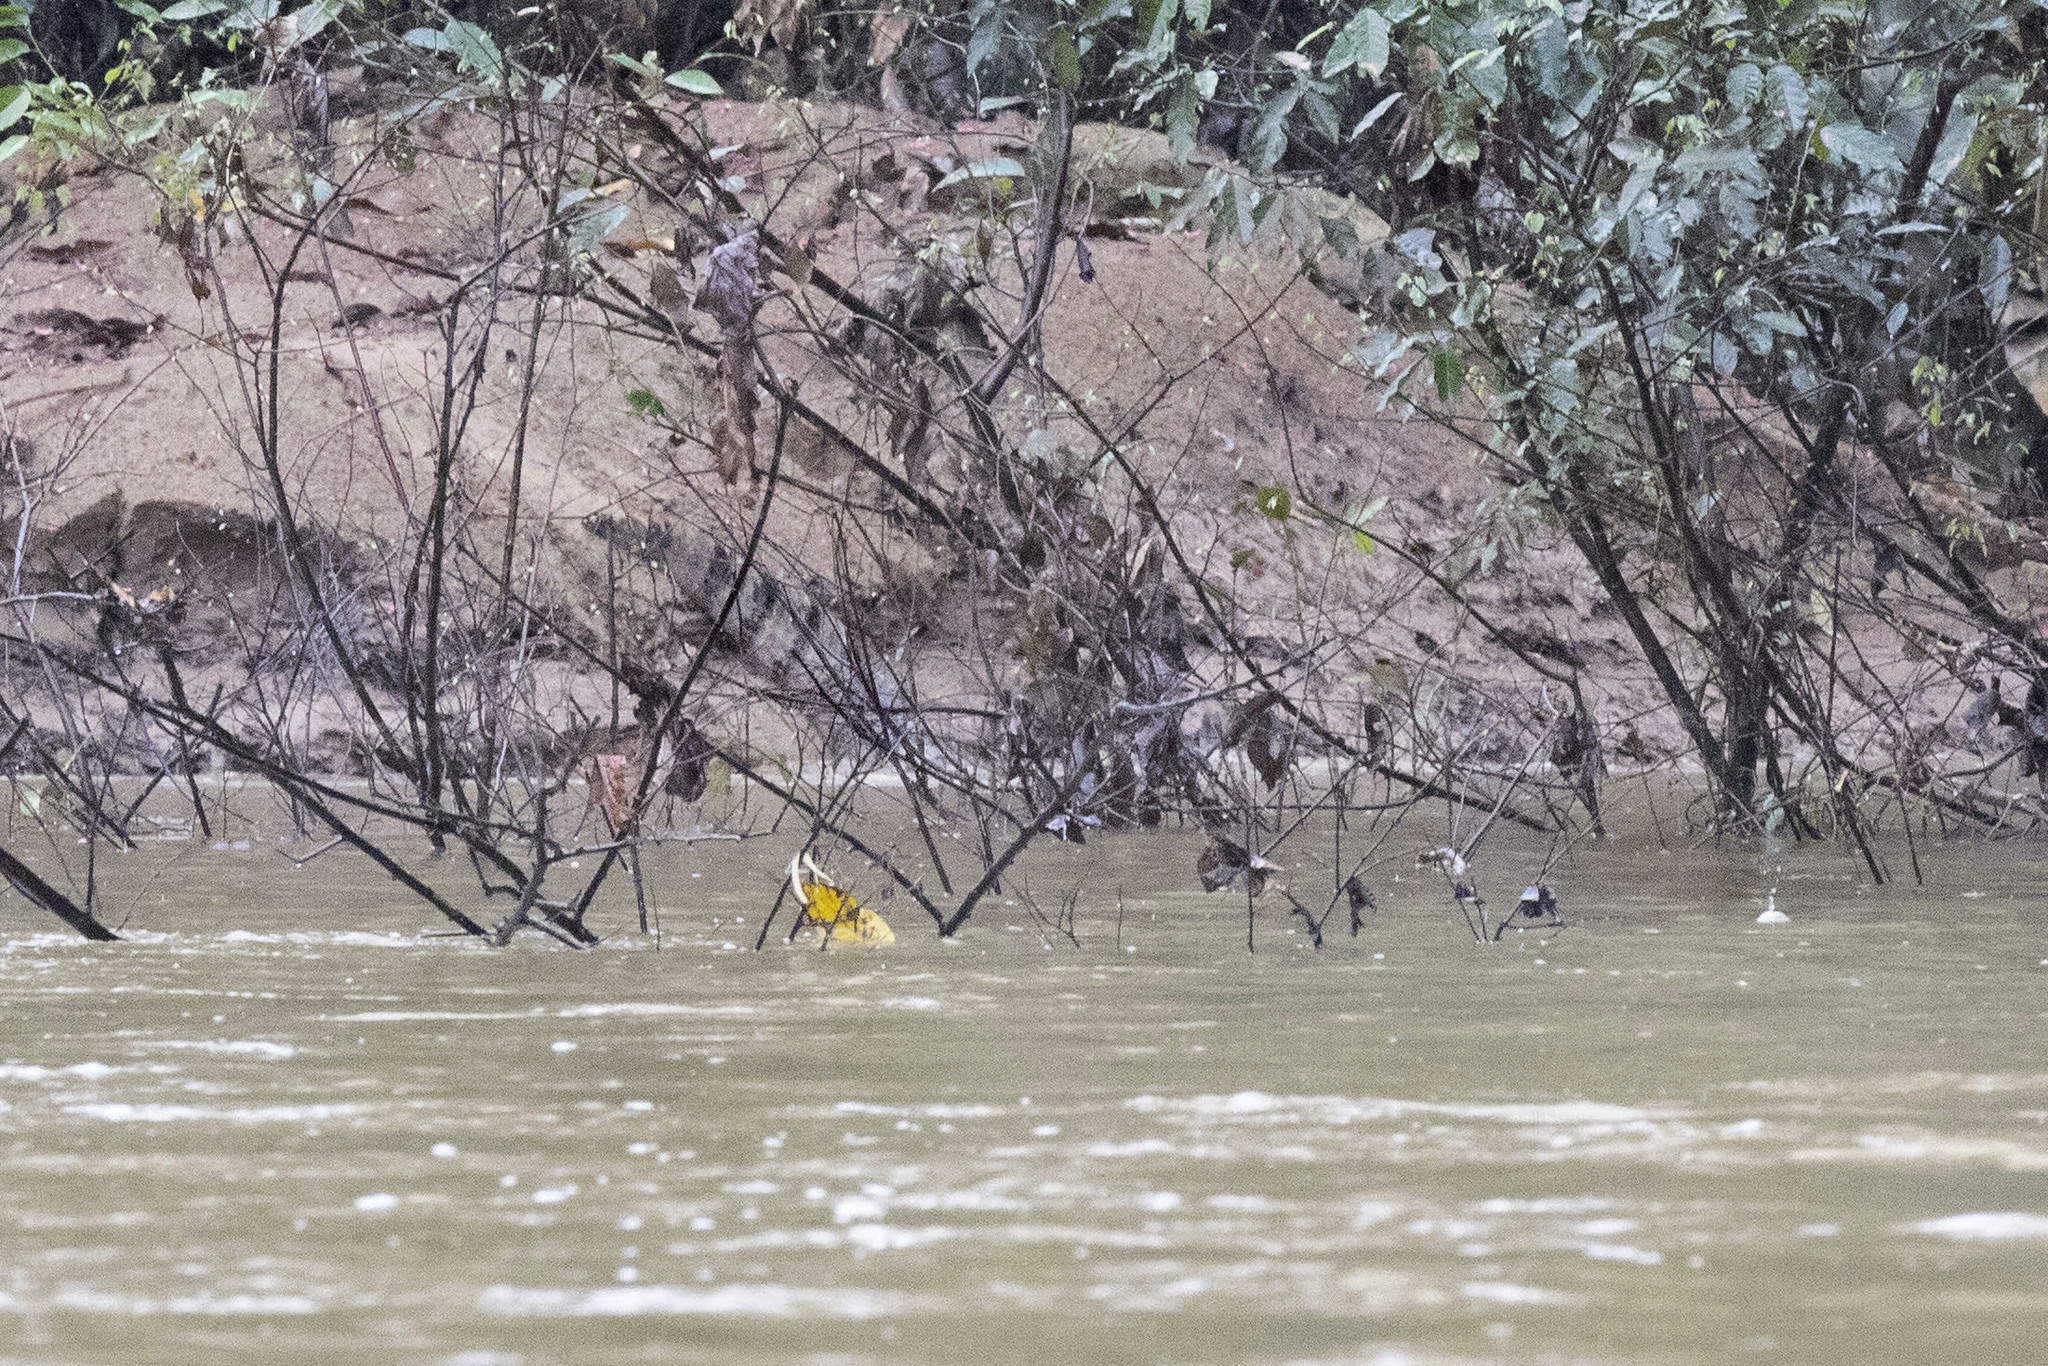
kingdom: Animalia
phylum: Chordata
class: Crocodylia
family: Alligatoridae
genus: Caiman
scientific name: Caiman crocodilus
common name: Common caiman
